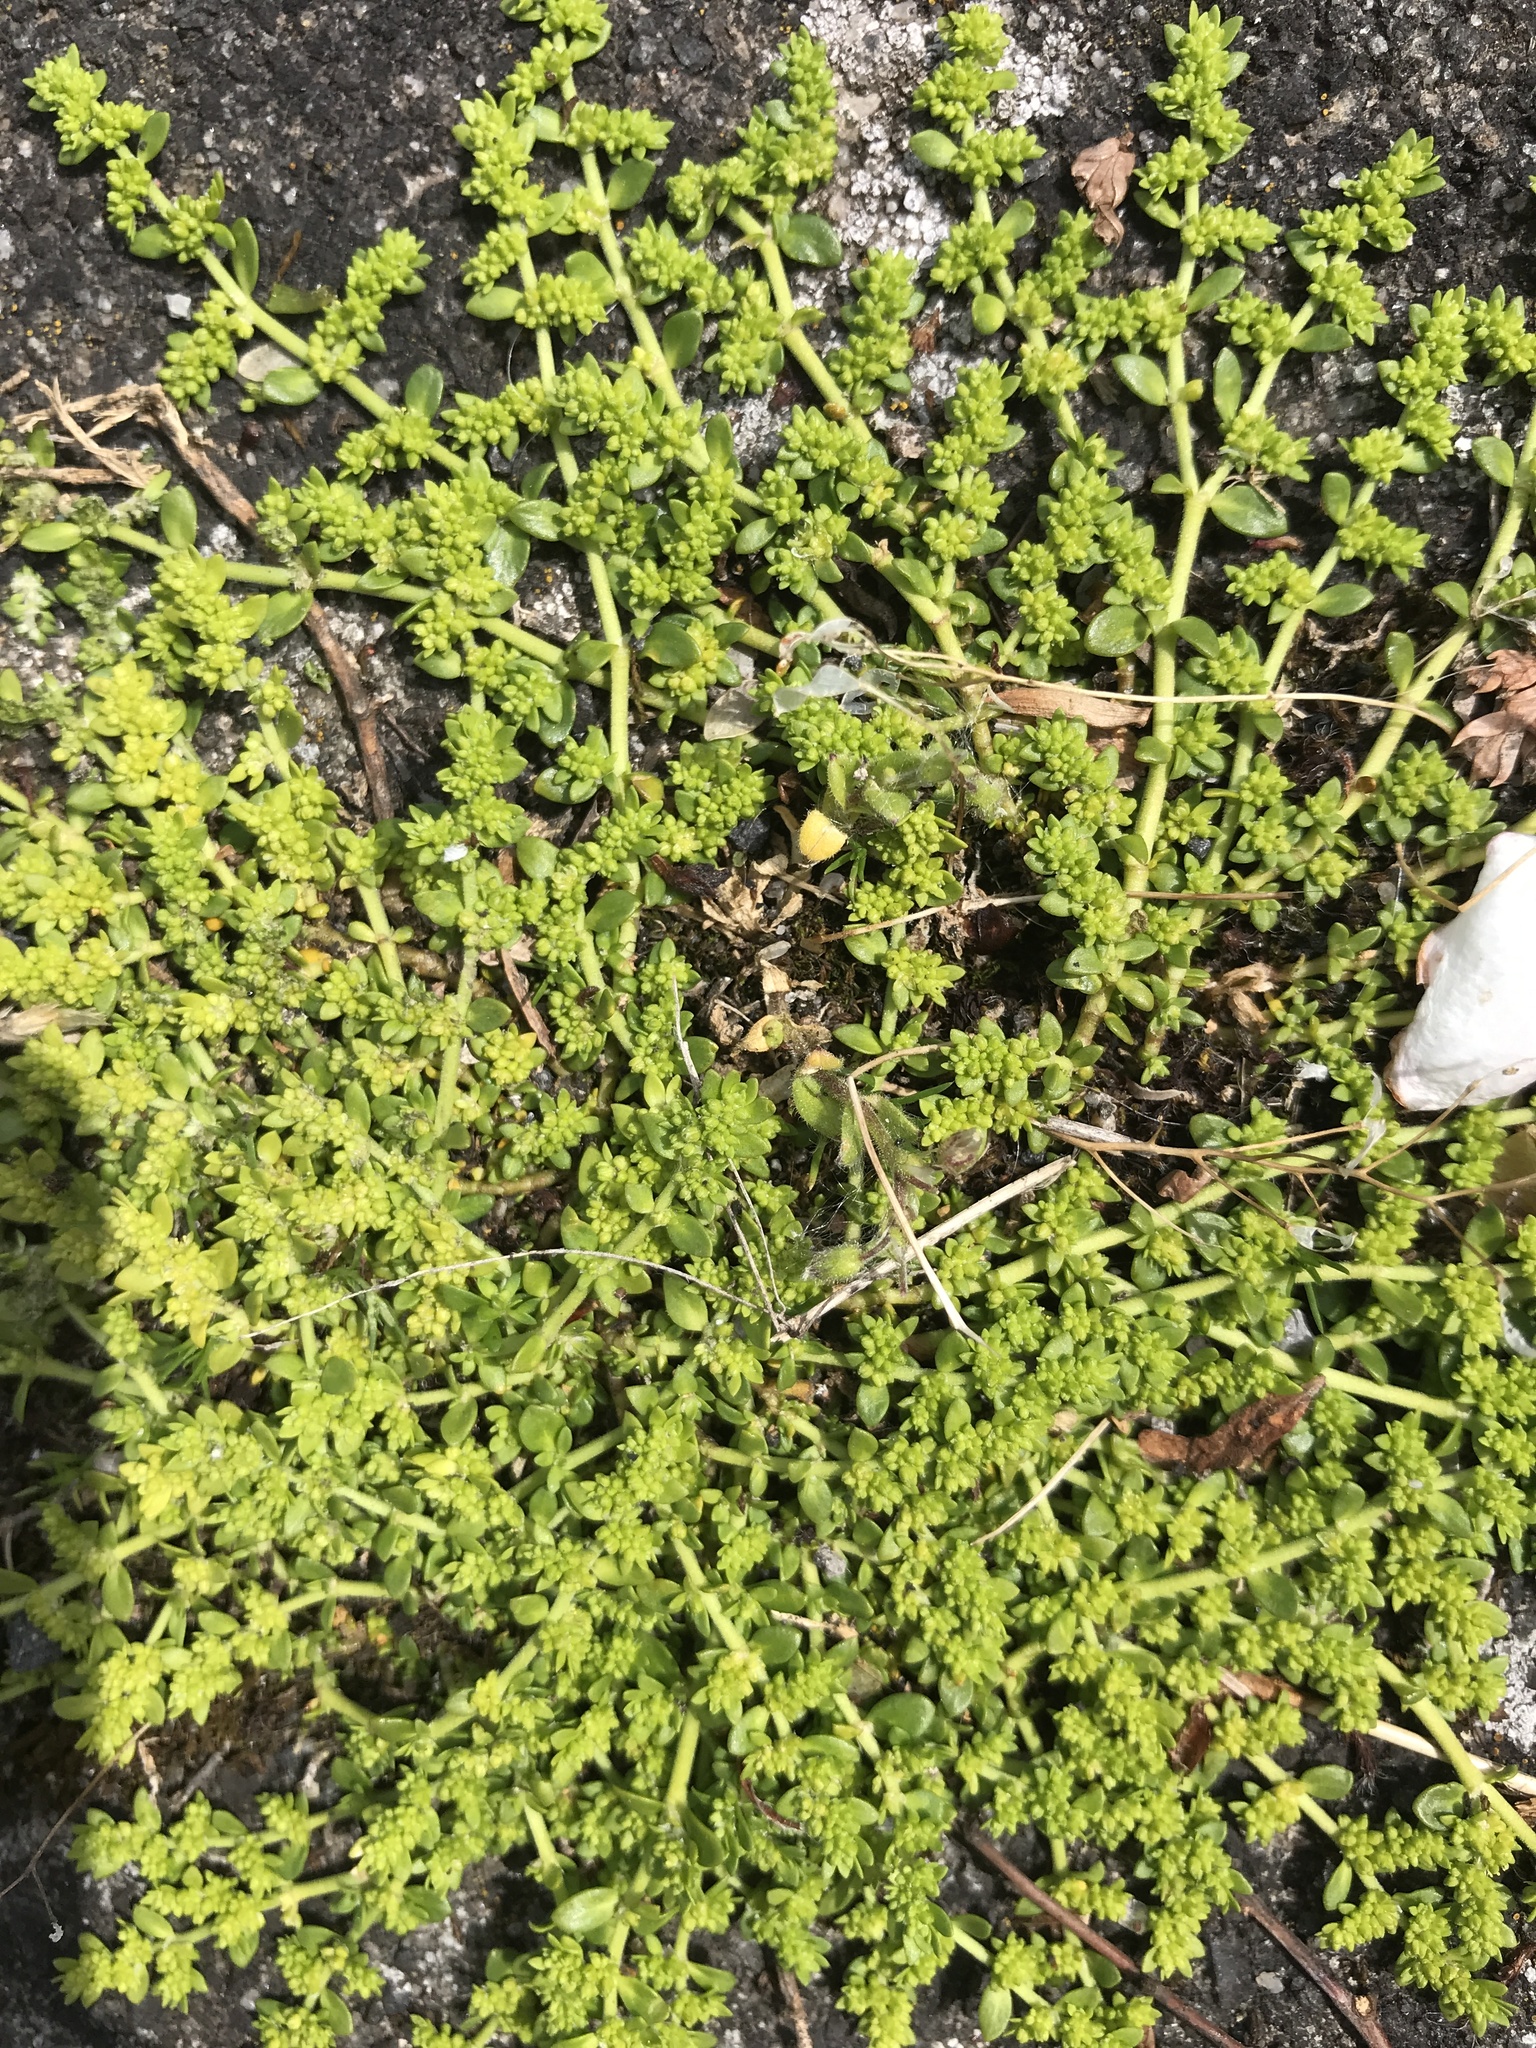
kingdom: Plantae
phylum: Tracheophyta
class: Magnoliopsida
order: Caryophyllales
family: Caryophyllaceae
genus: Herniaria
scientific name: Herniaria glabra
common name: Smooth rupturewort
